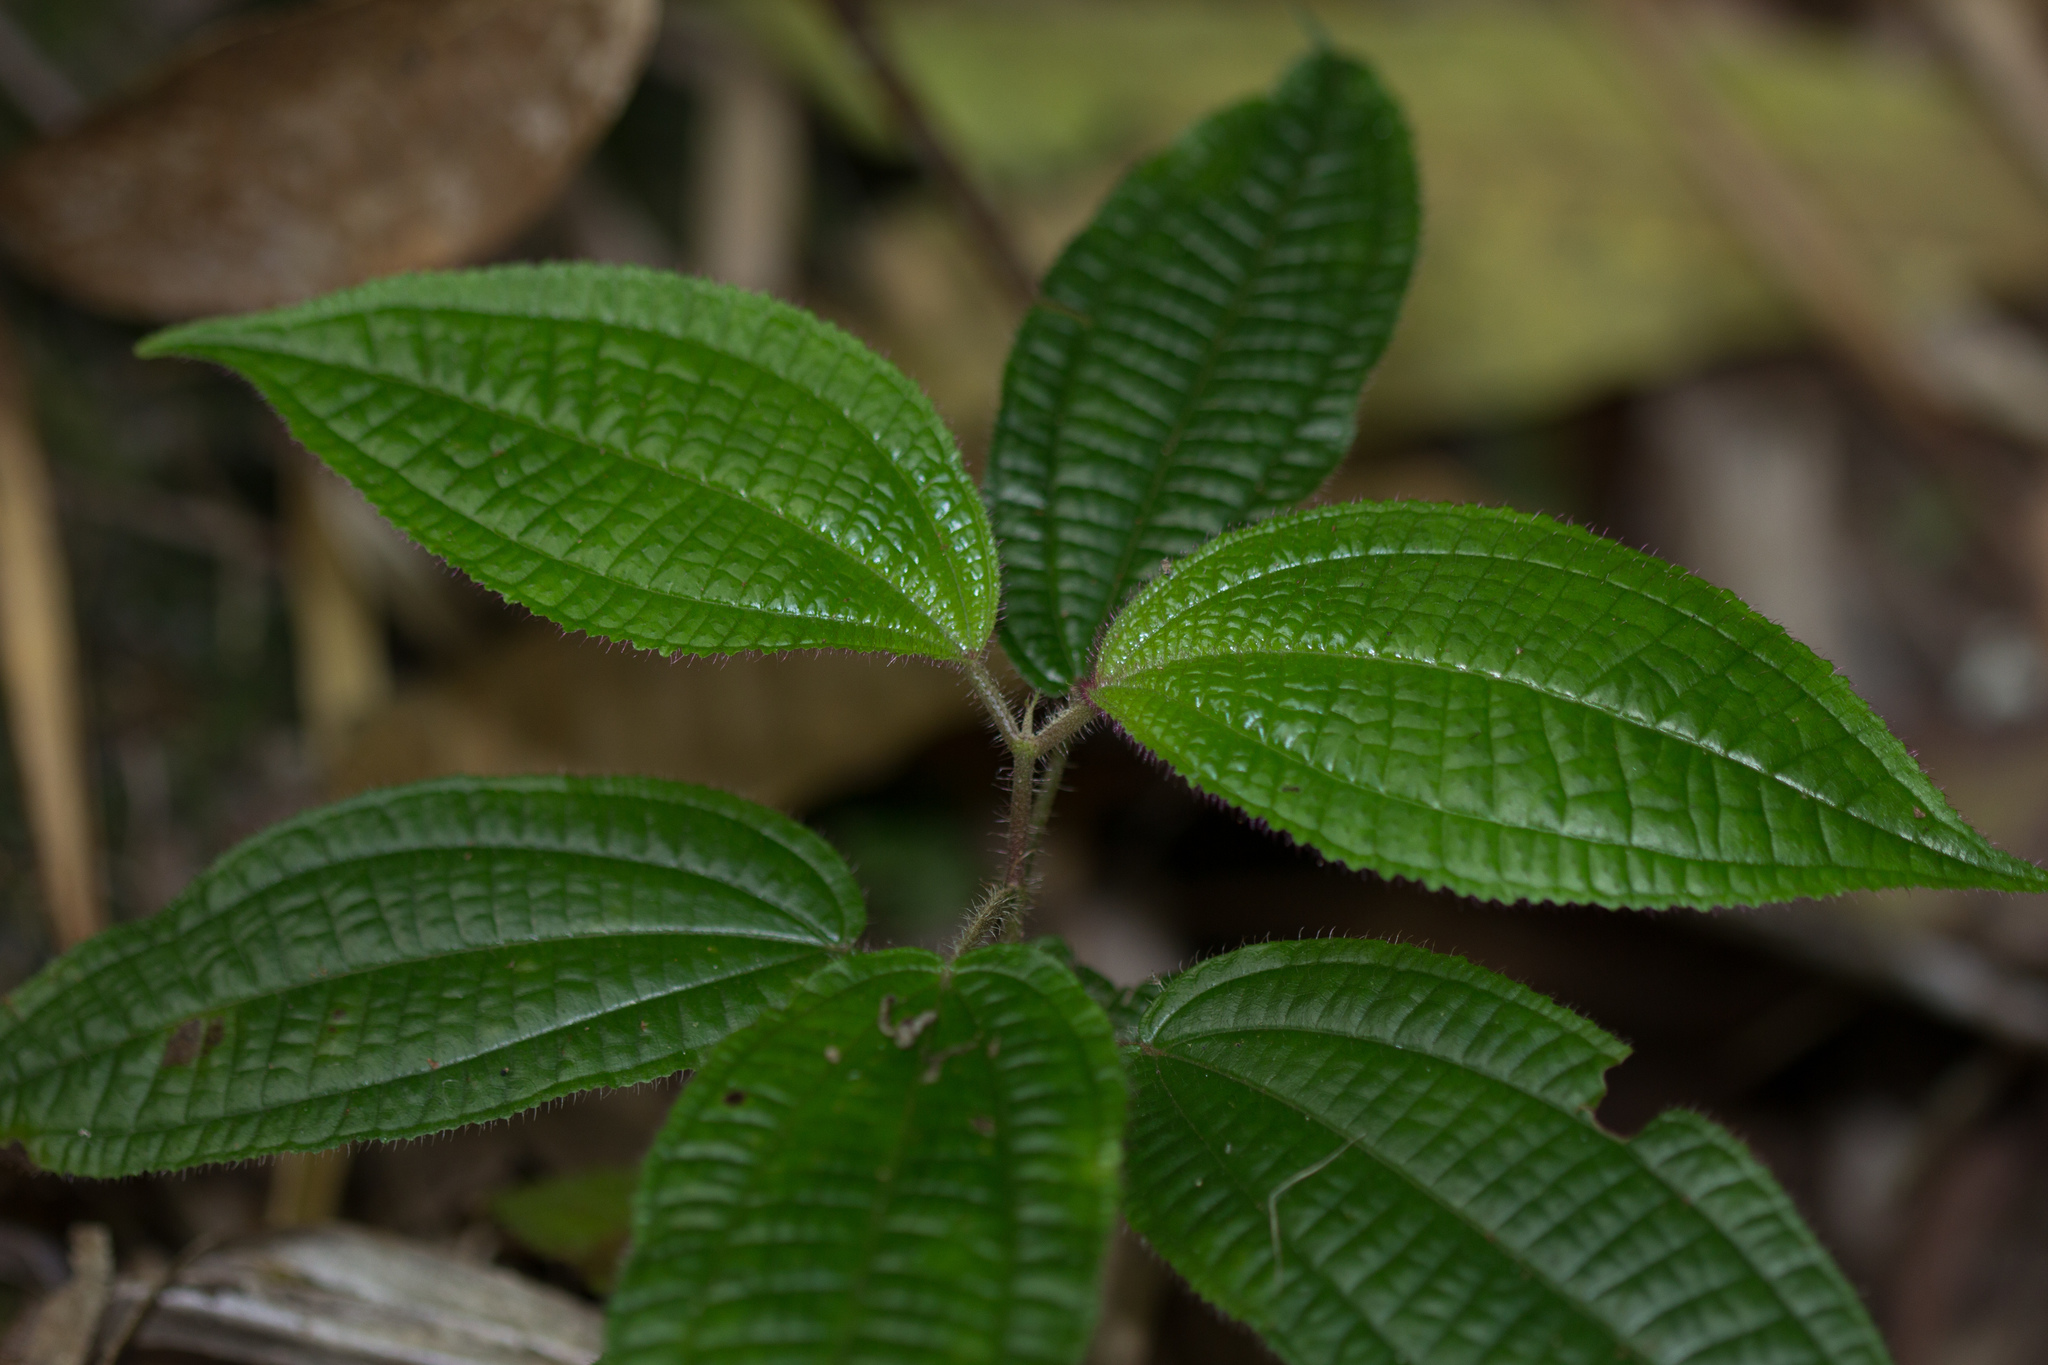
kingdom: Plantae
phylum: Tracheophyta
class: Magnoliopsida
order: Myrtales
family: Melastomataceae
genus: Miconia
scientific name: Miconia crenata
